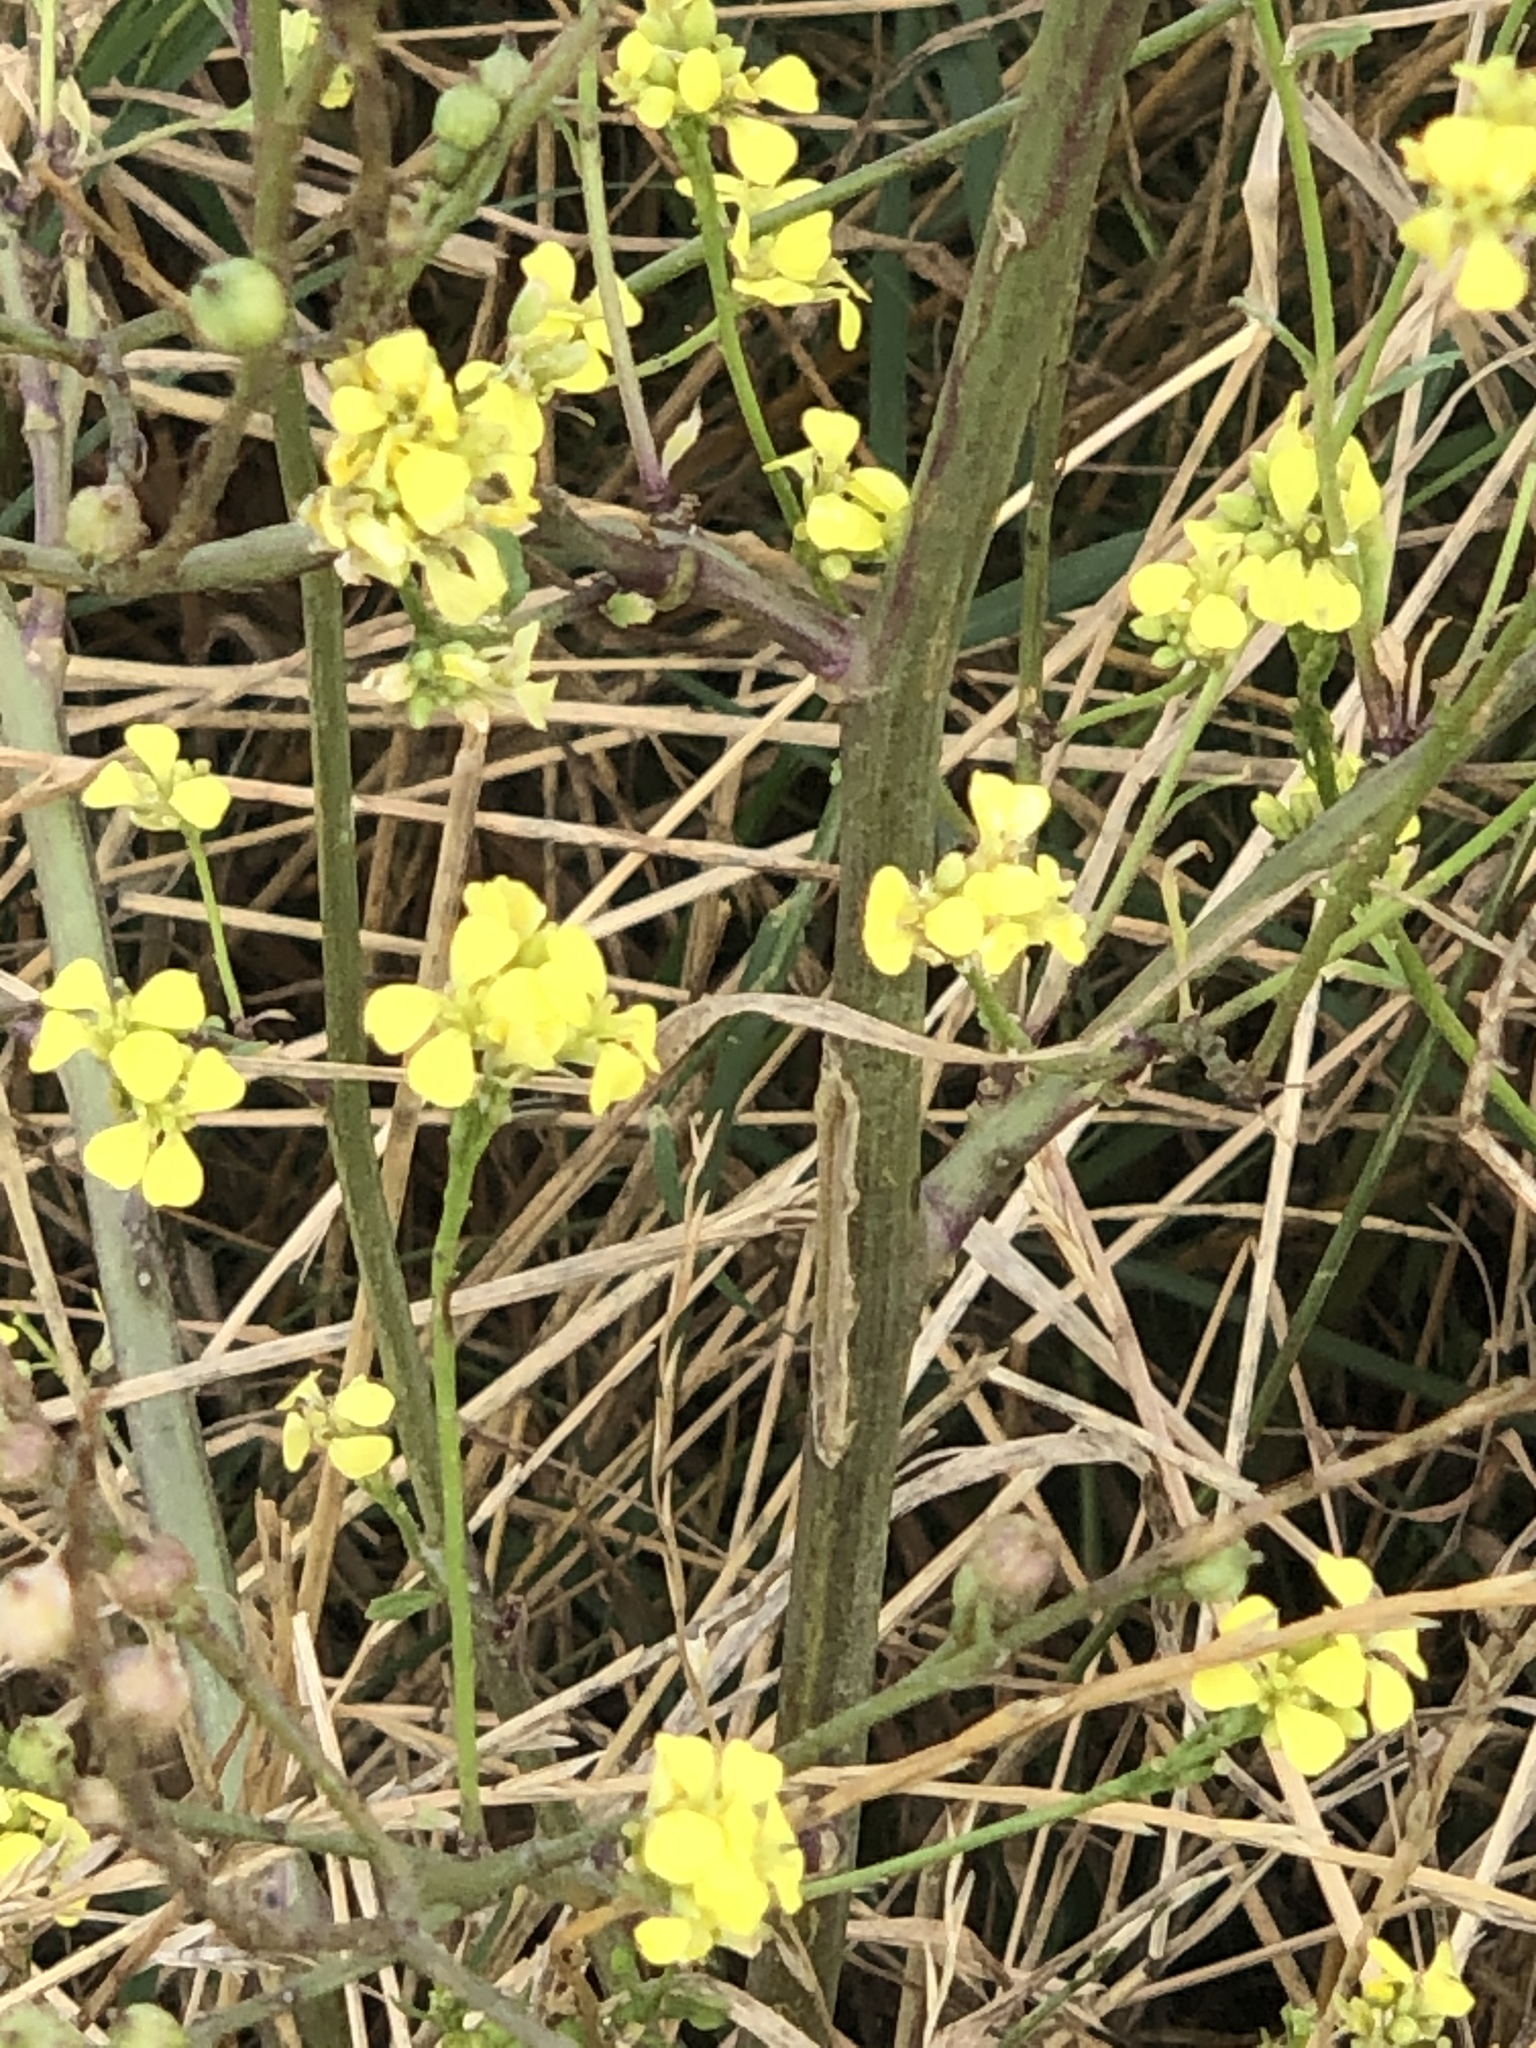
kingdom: Plantae
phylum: Tracheophyta
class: Magnoliopsida
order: Brassicales
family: Brassicaceae
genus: Rapistrum
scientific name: Rapistrum rugosum
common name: Annual bastardcabbage
